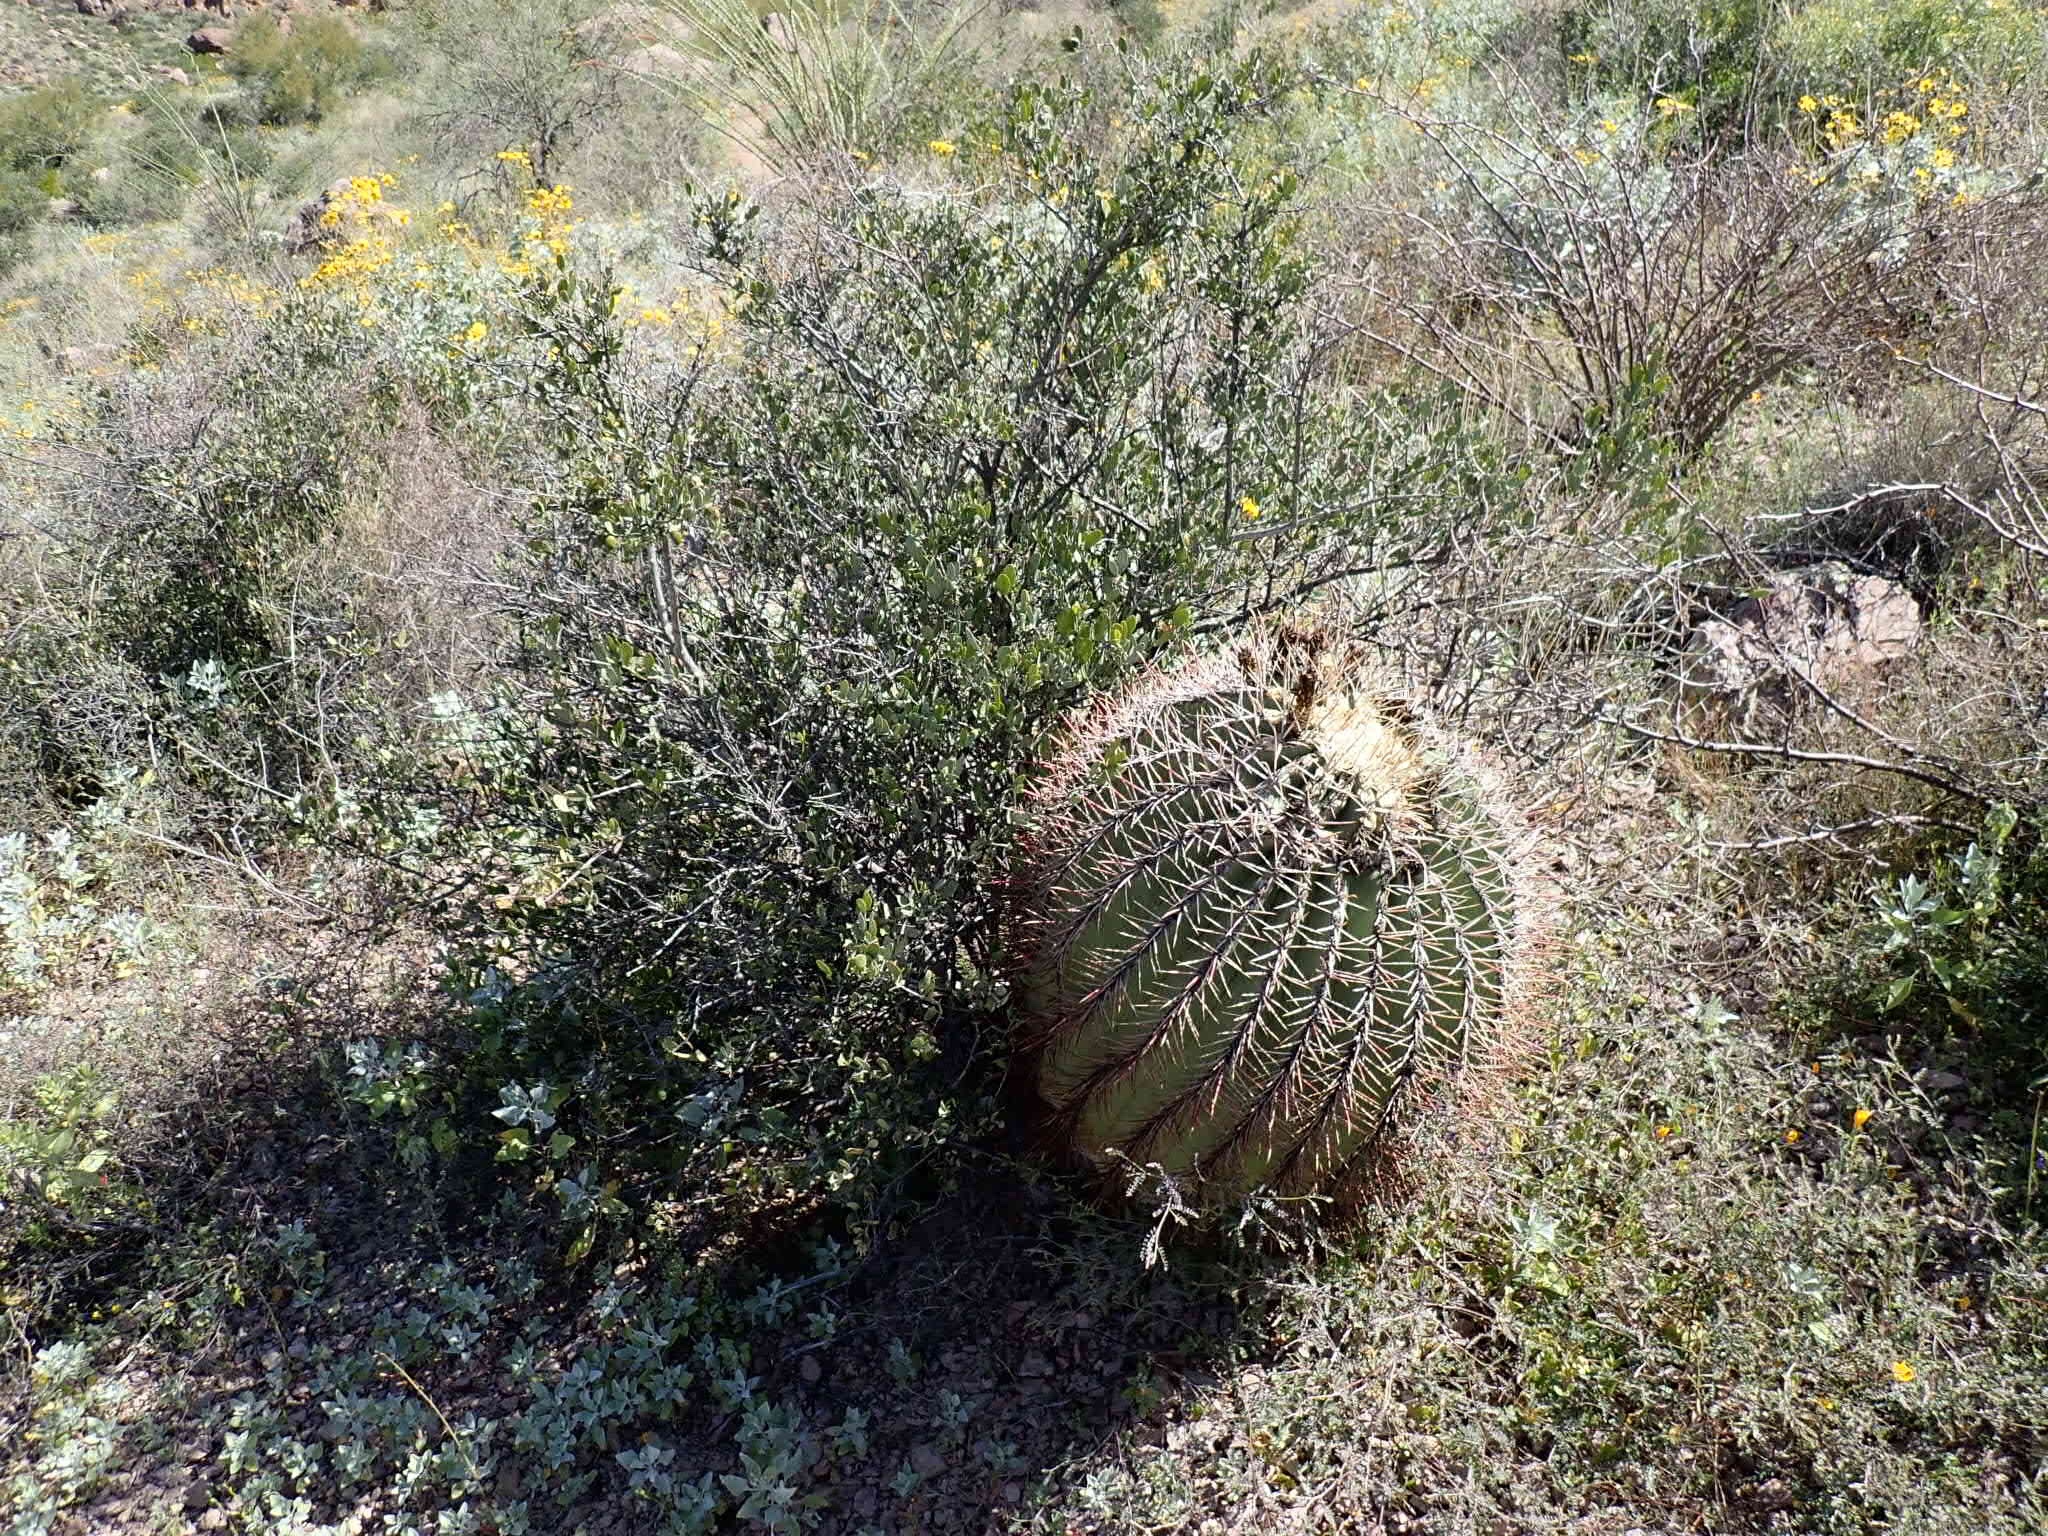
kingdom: Plantae
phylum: Tracheophyta
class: Magnoliopsida
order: Caryophyllales
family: Cactaceae
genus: Ferocactus
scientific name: Ferocactus emoryi
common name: Emory's barrel cactus
